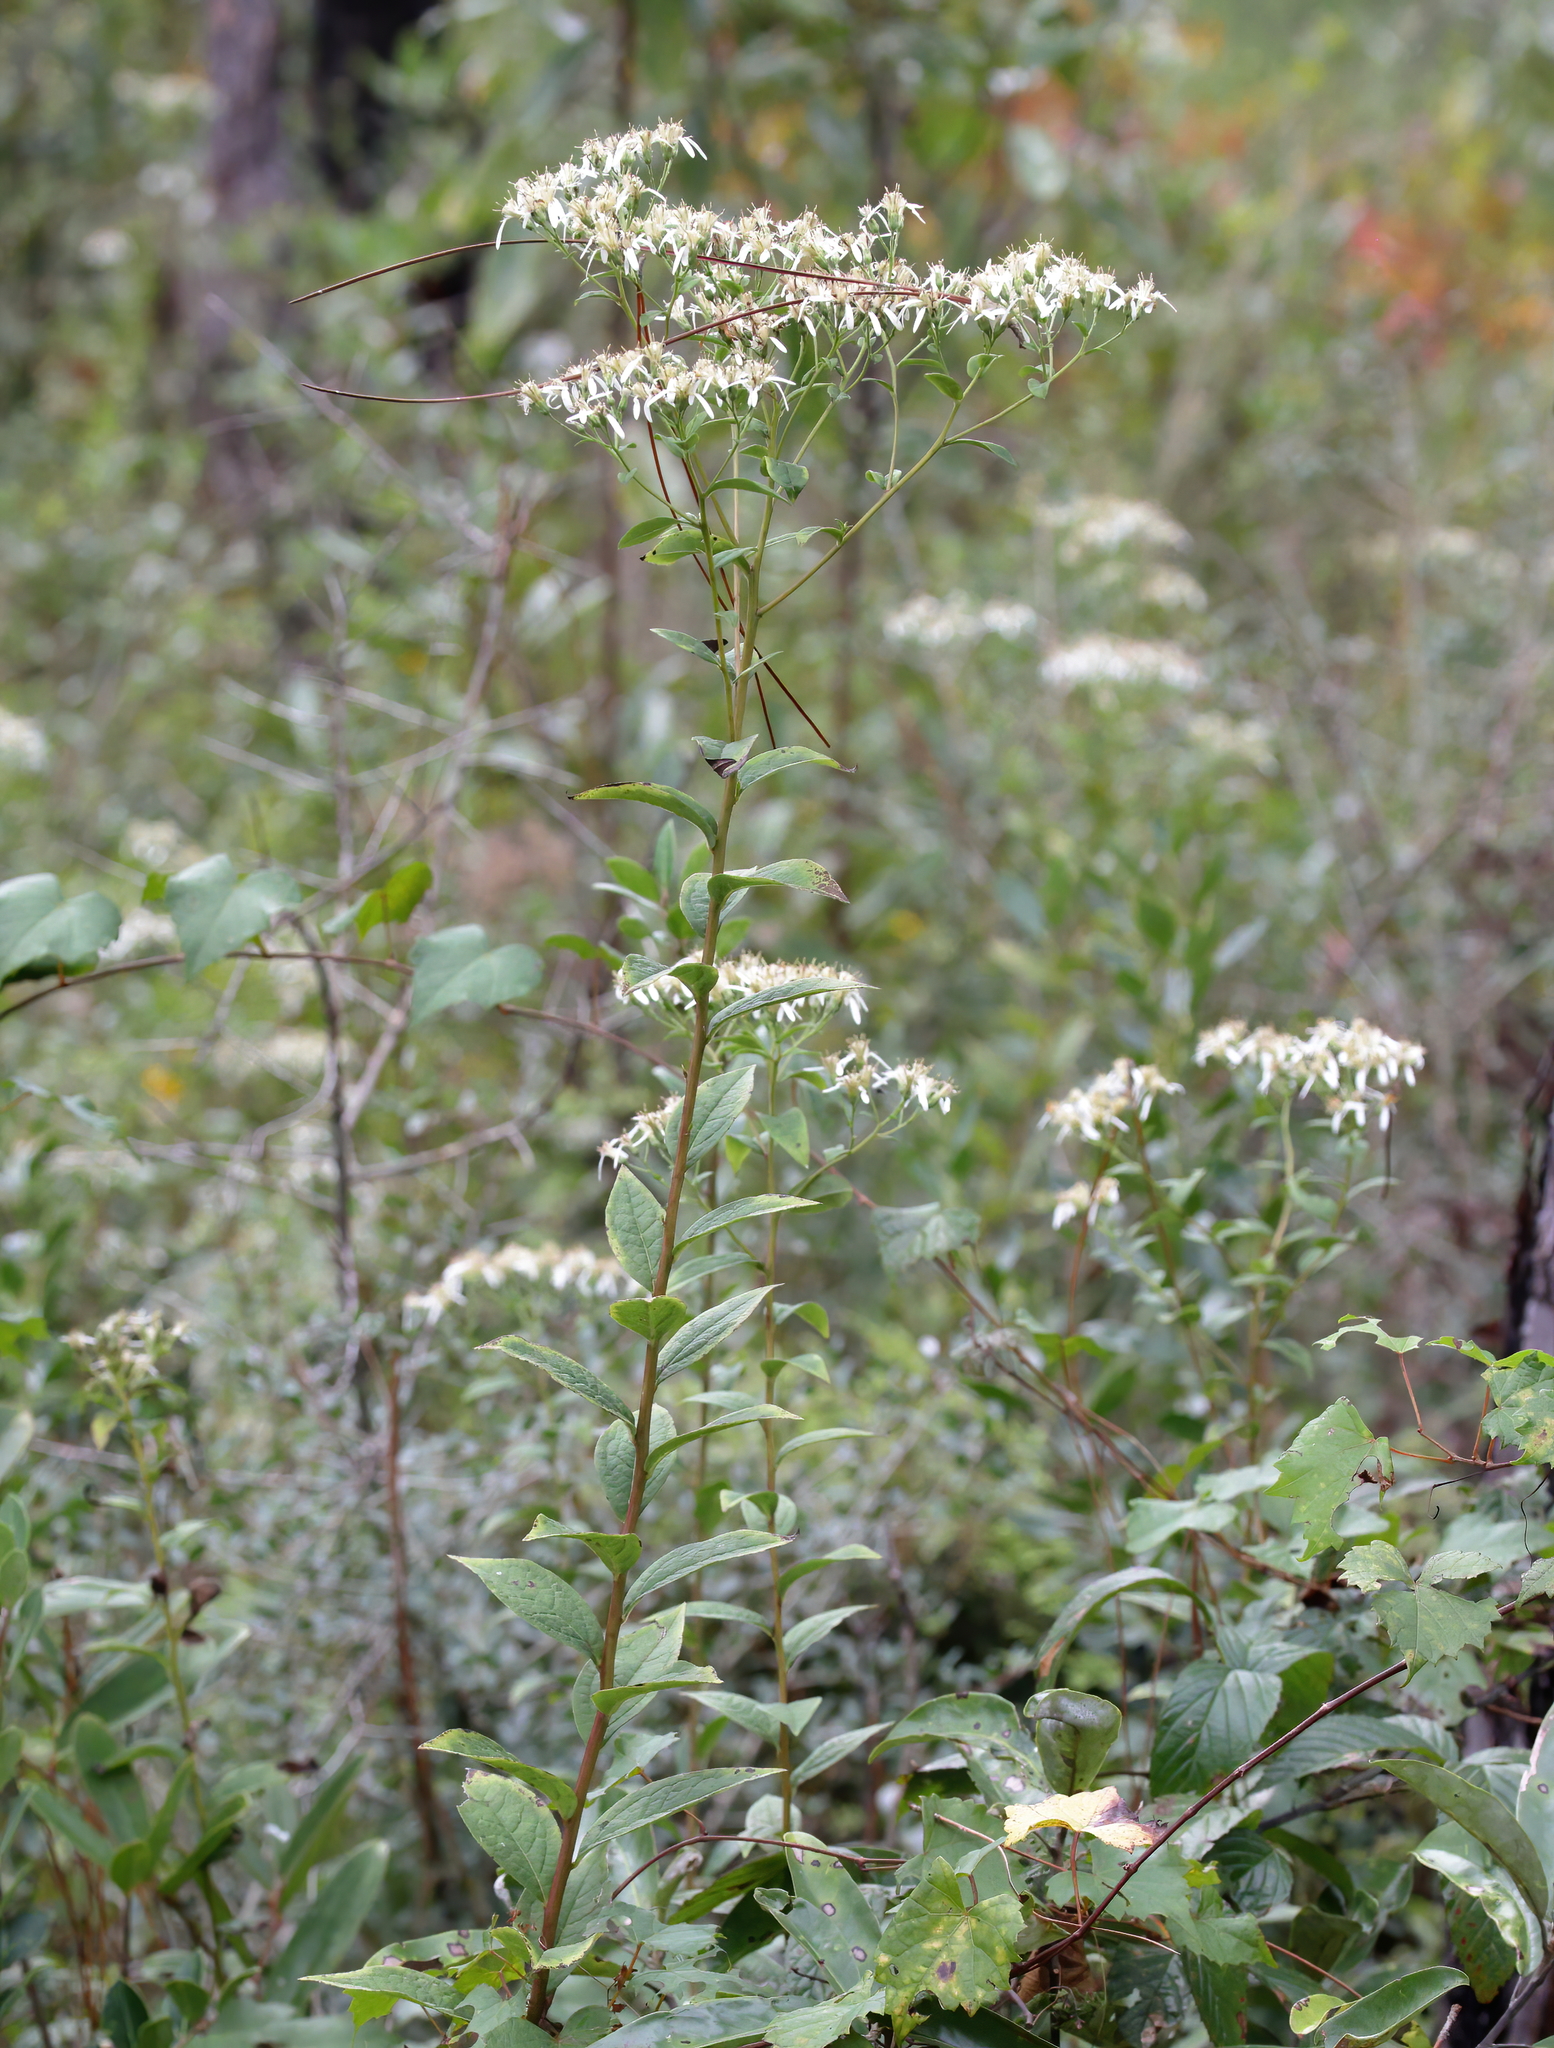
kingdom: Plantae
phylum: Tracheophyta
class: Magnoliopsida
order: Asterales
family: Asteraceae
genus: Doellingeria
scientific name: Doellingeria sericocarpoides
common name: Southern tall flat-top aster
